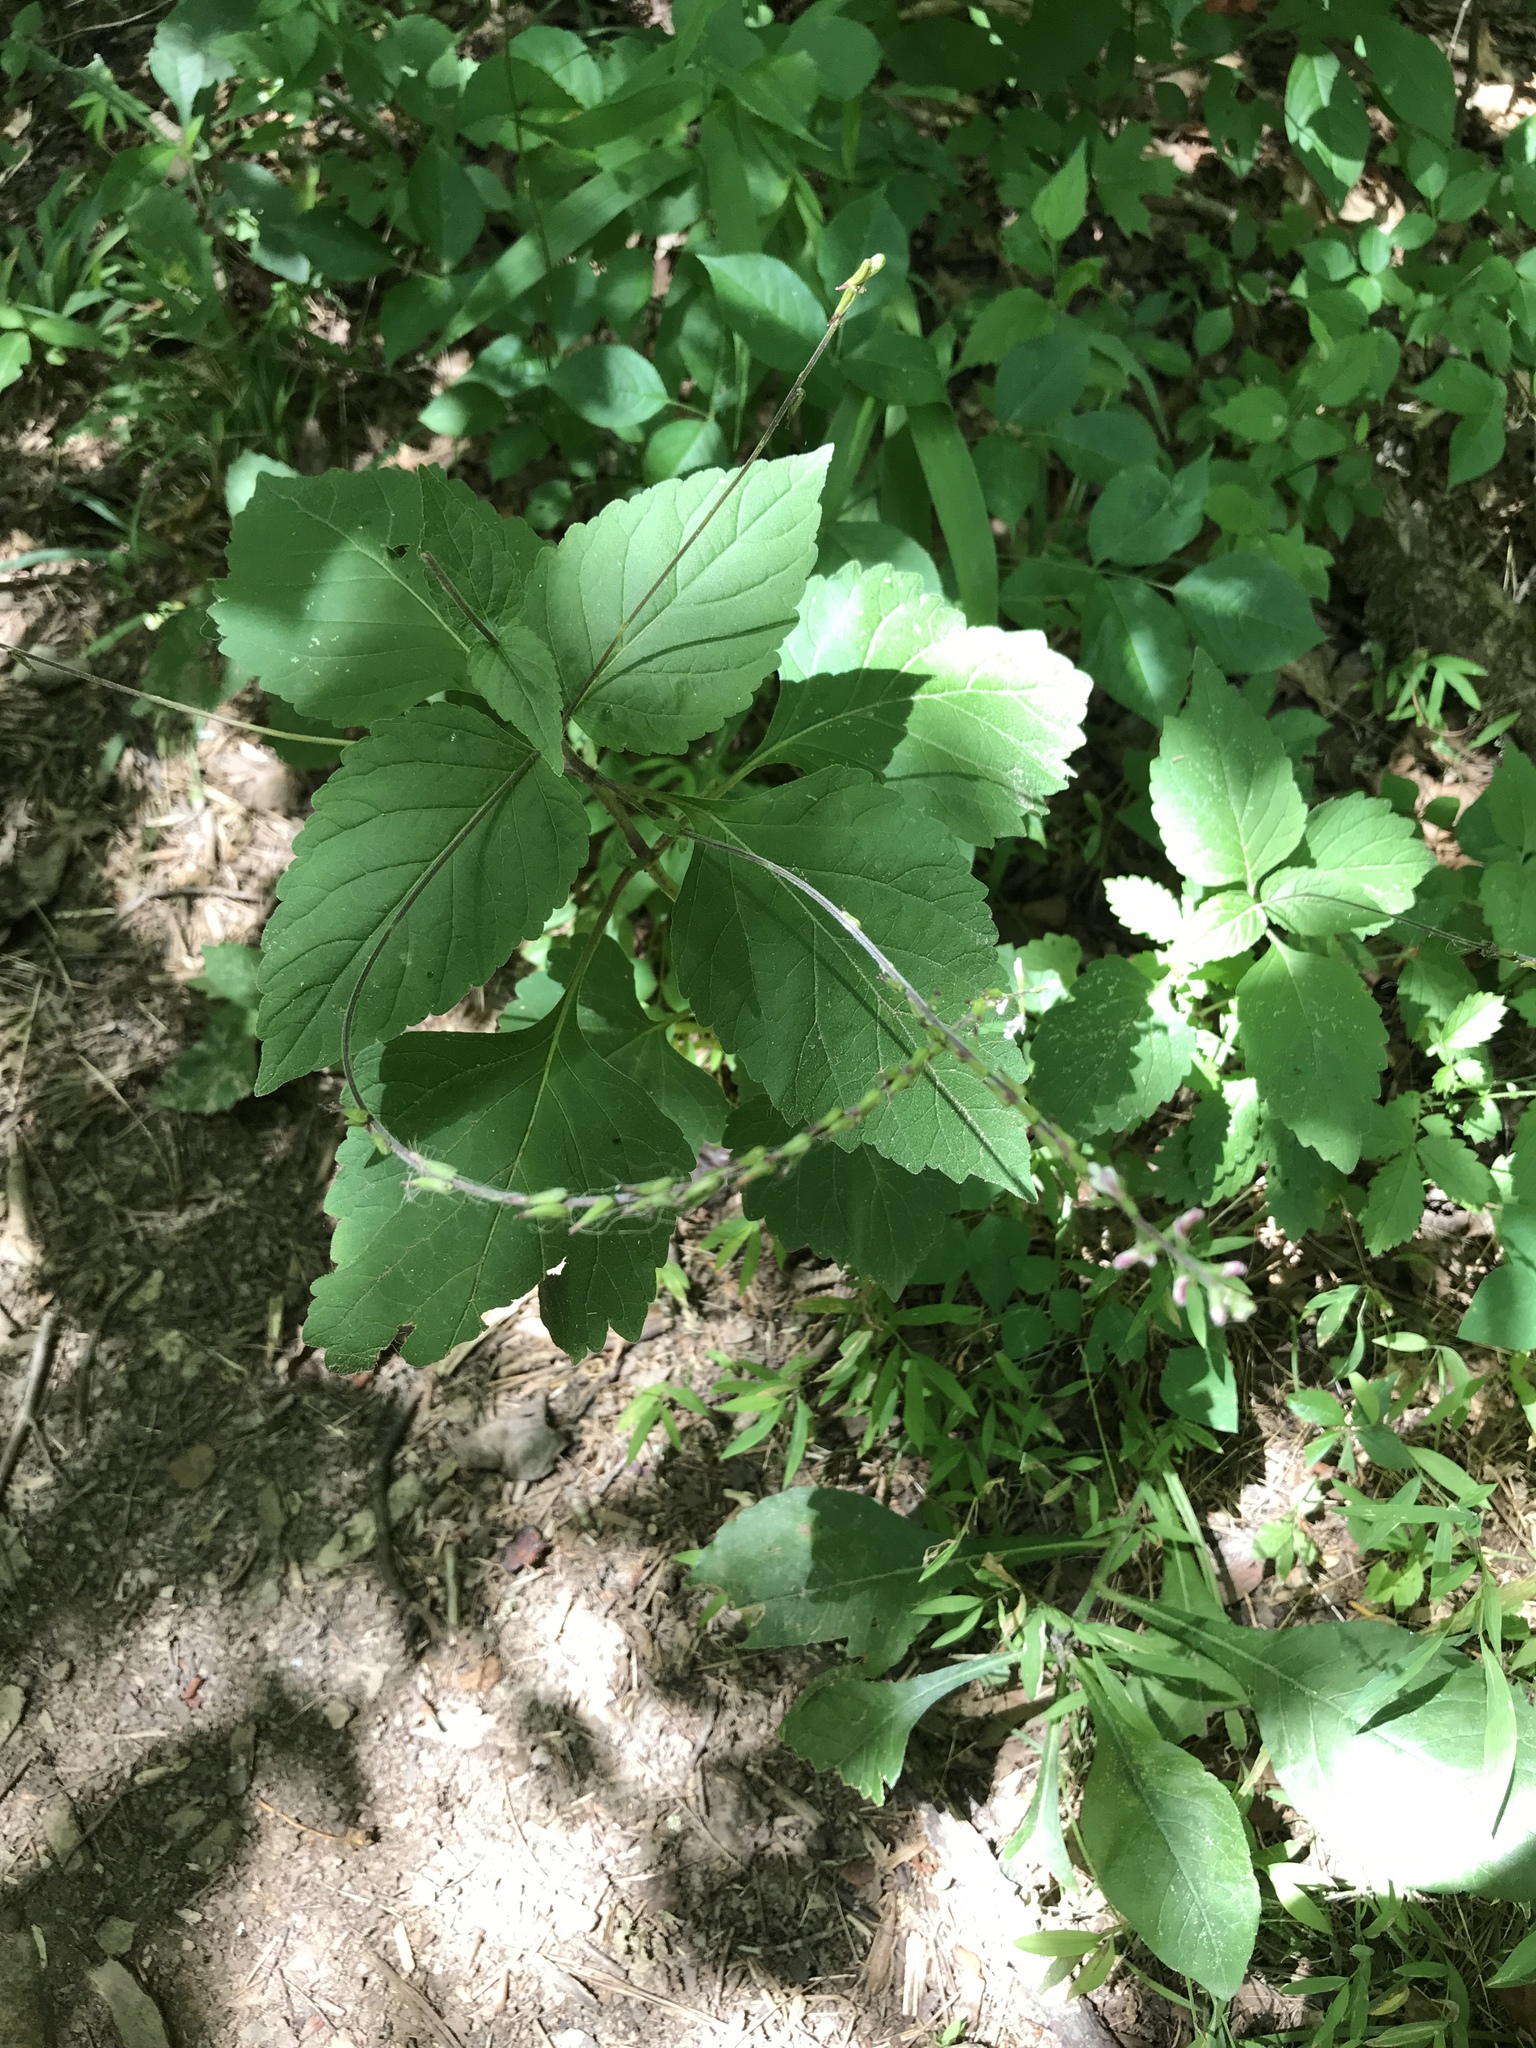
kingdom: Plantae
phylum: Tracheophyta
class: Magnoliopsida
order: Lamiales
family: Phrymaceae
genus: Phryma
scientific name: Phryma leptostachya
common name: American lopseed
